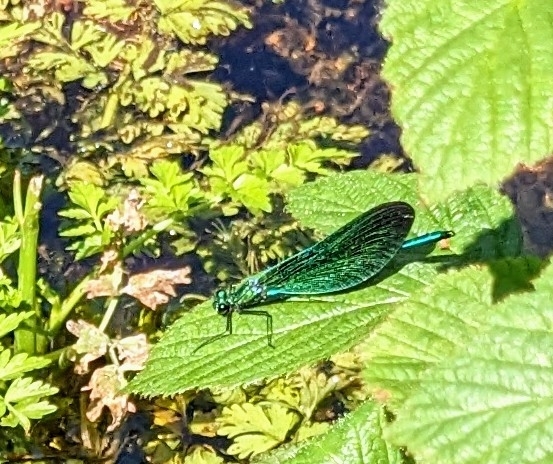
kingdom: Animalia
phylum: Arthropoda
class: Insecta
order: Odonata
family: Calopterygidae
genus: Calopteryx
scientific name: Calopteryx virgo
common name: Beautiful demoiselle
